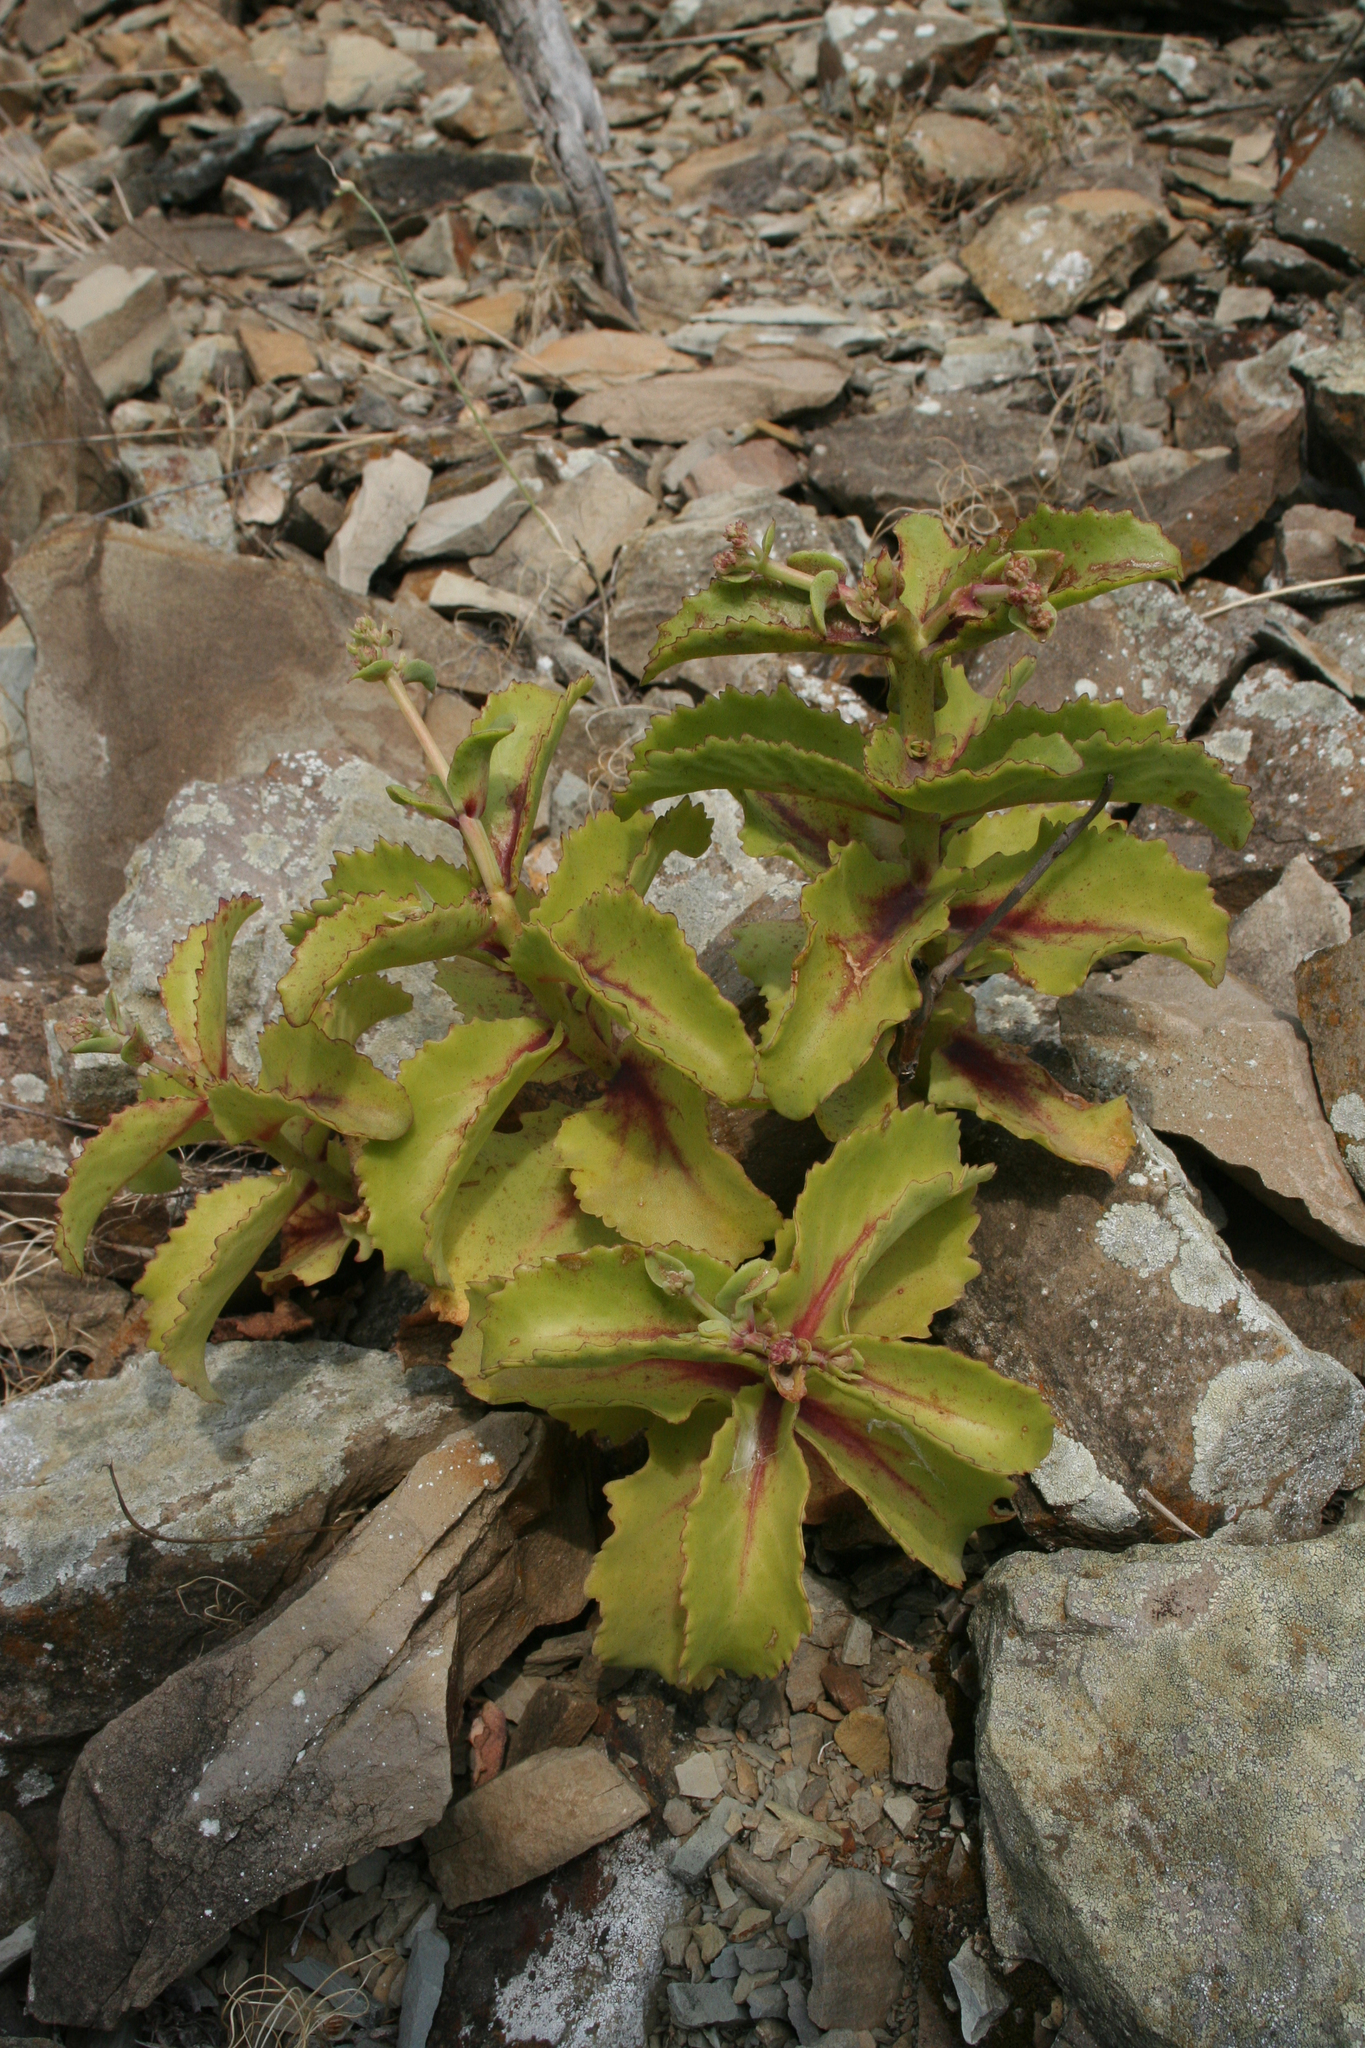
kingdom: Plantae
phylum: Tracheophyta
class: Magnoliopsida
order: Saxifragales
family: Crassulaceae
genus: Hylotelephium
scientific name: Hylotelephium maximum
